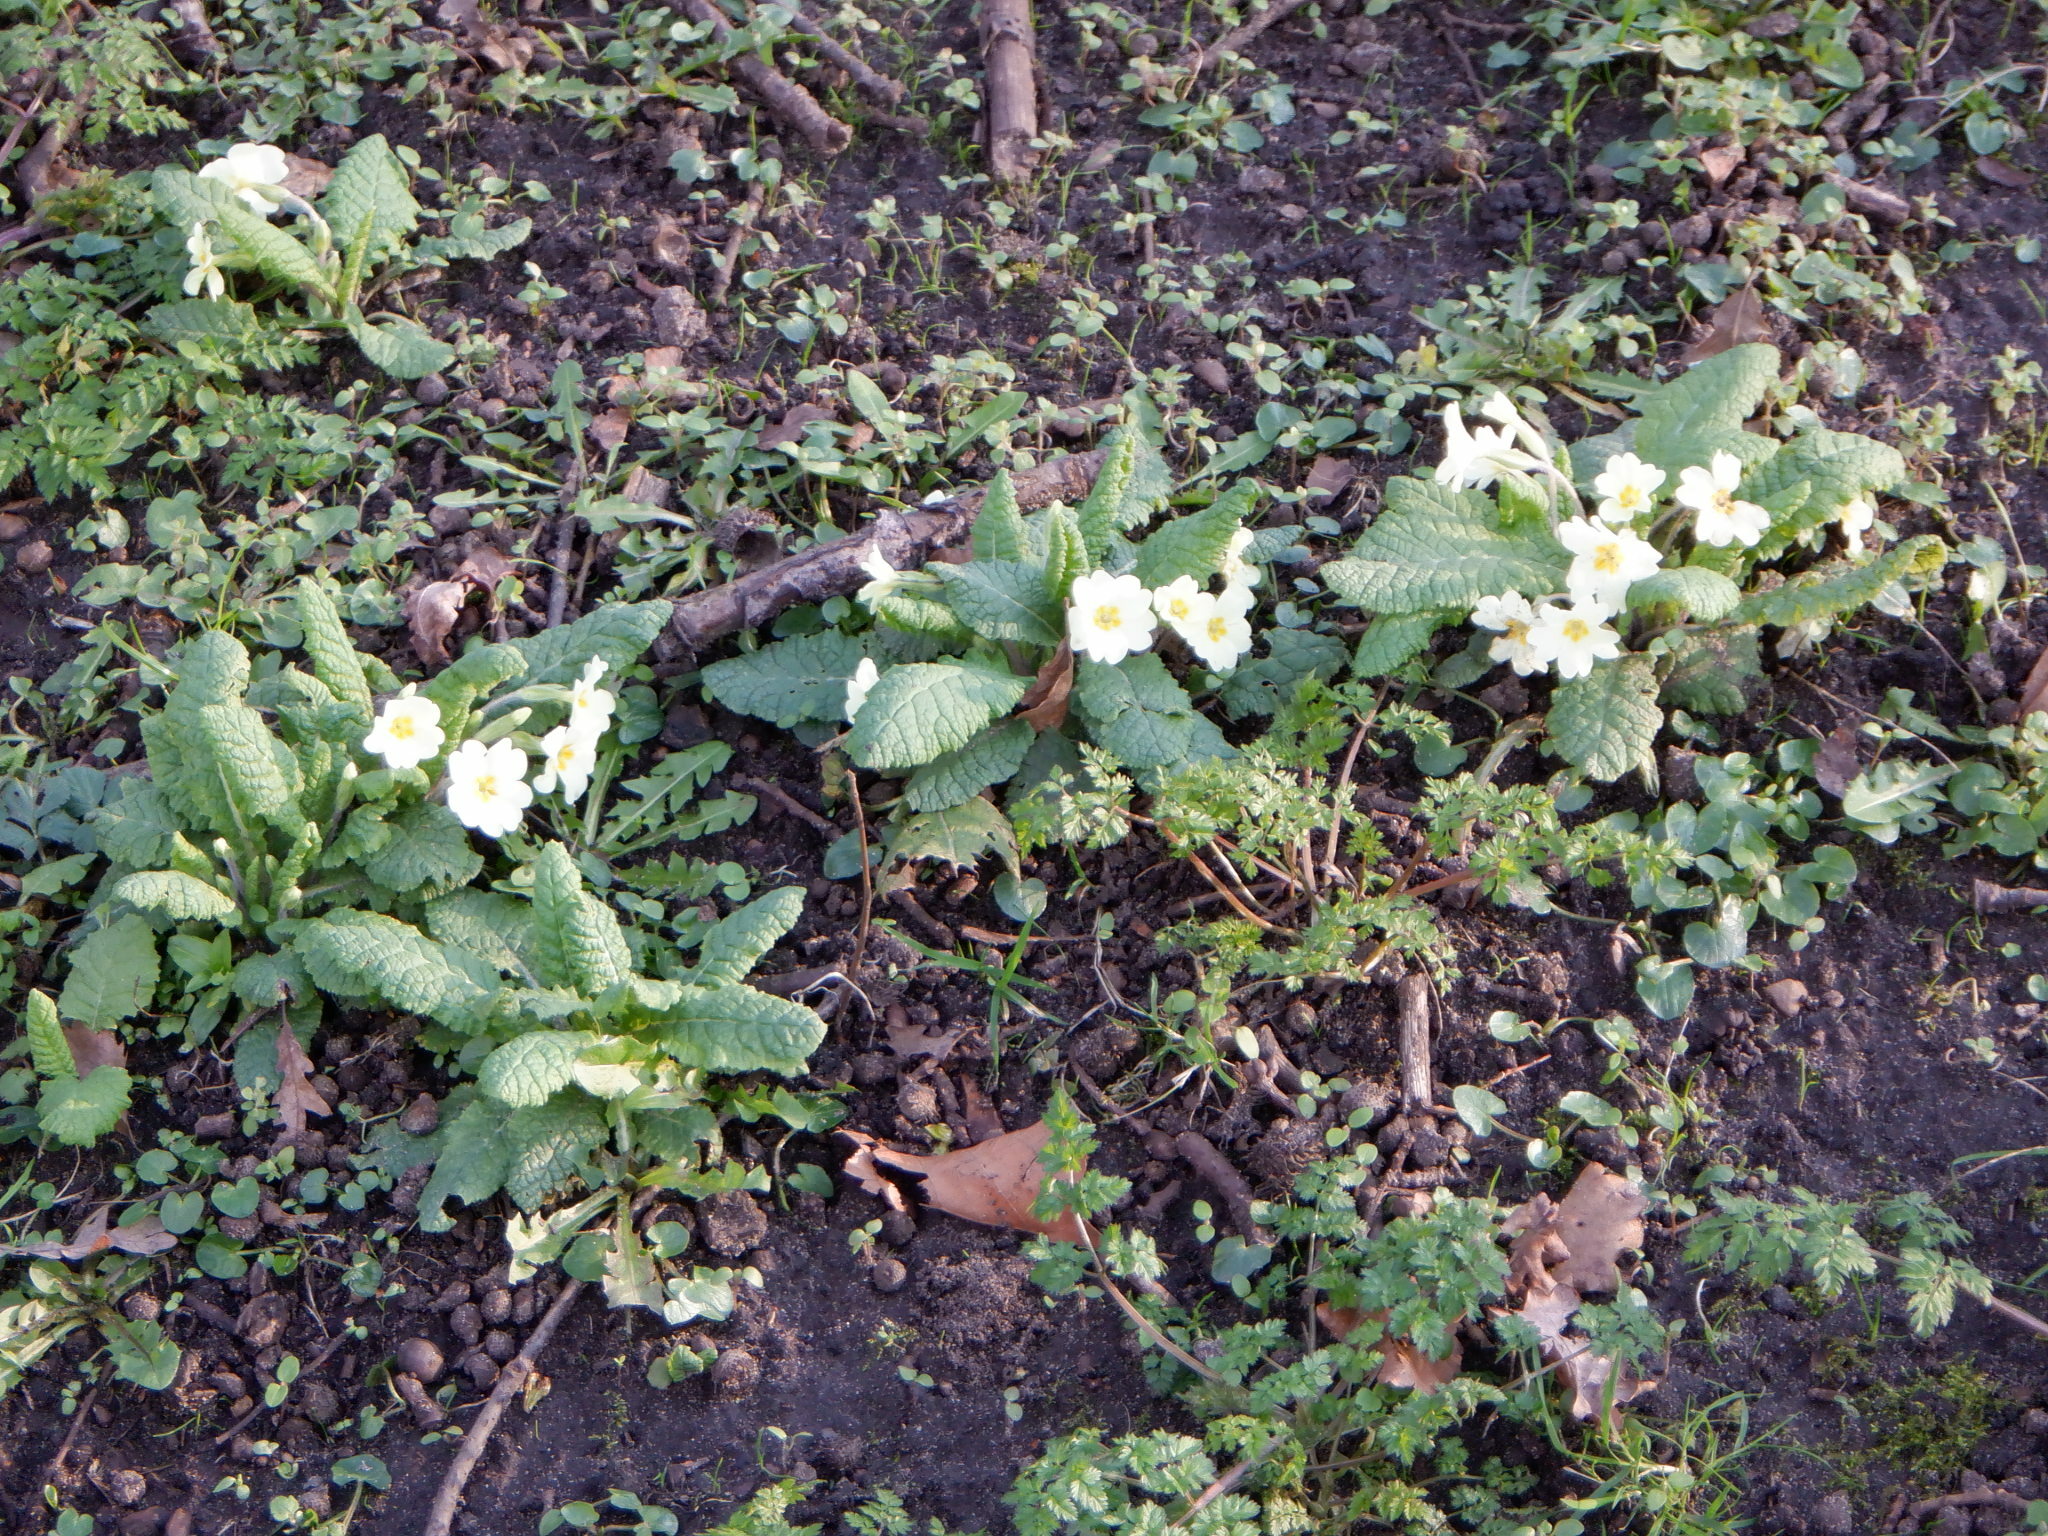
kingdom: Plantae
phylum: Tracheophyta
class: Magnoliopsida
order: Ericales
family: Primulaceae
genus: Primula
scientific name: Primula vulgaris
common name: Primrose
